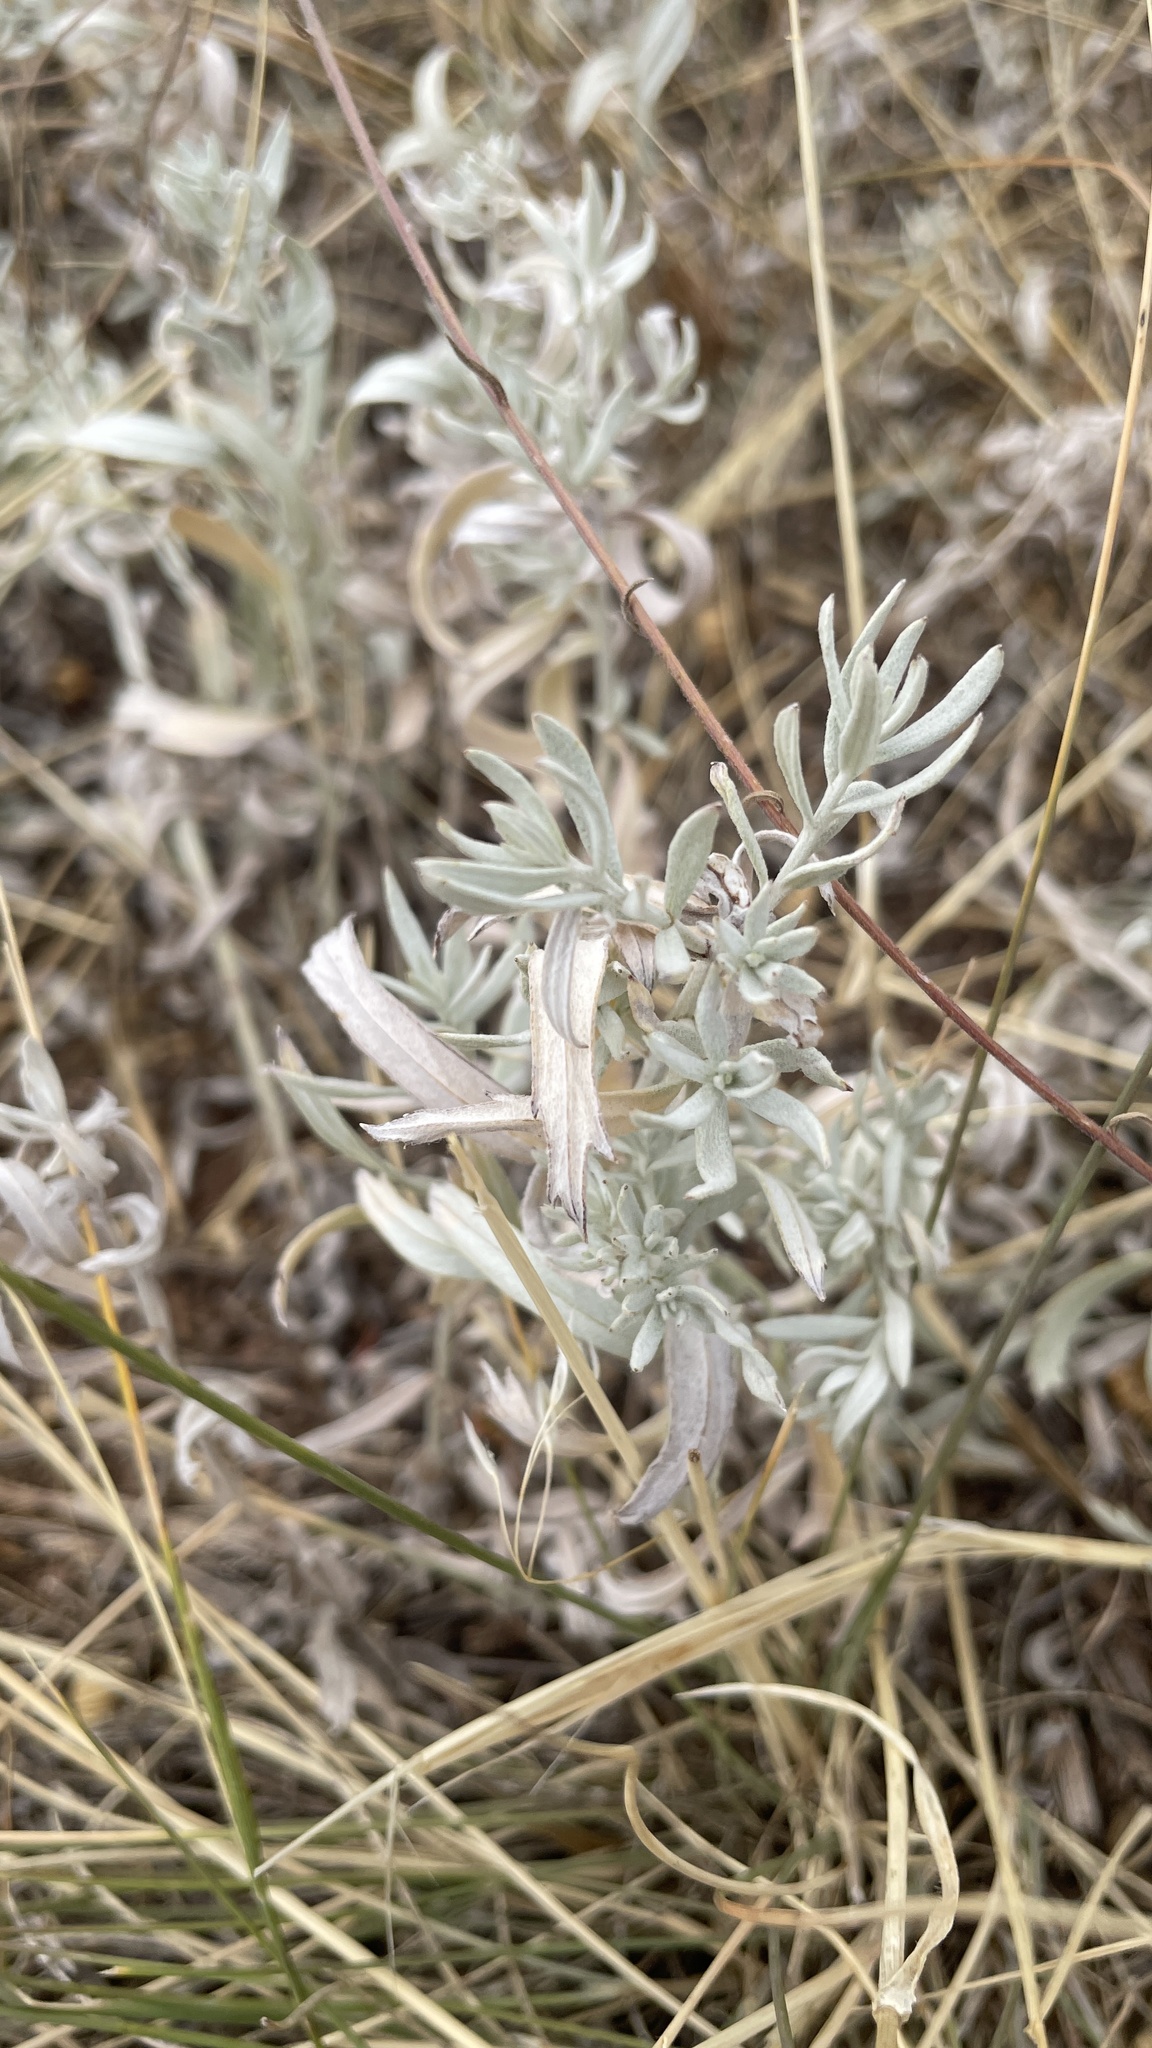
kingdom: Plantae
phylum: Tracheophyta
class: Magnoliopsida
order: Asterales
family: Asteraceae
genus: Artemisia
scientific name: Artemisia ludoviciana
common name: Western mugwort
